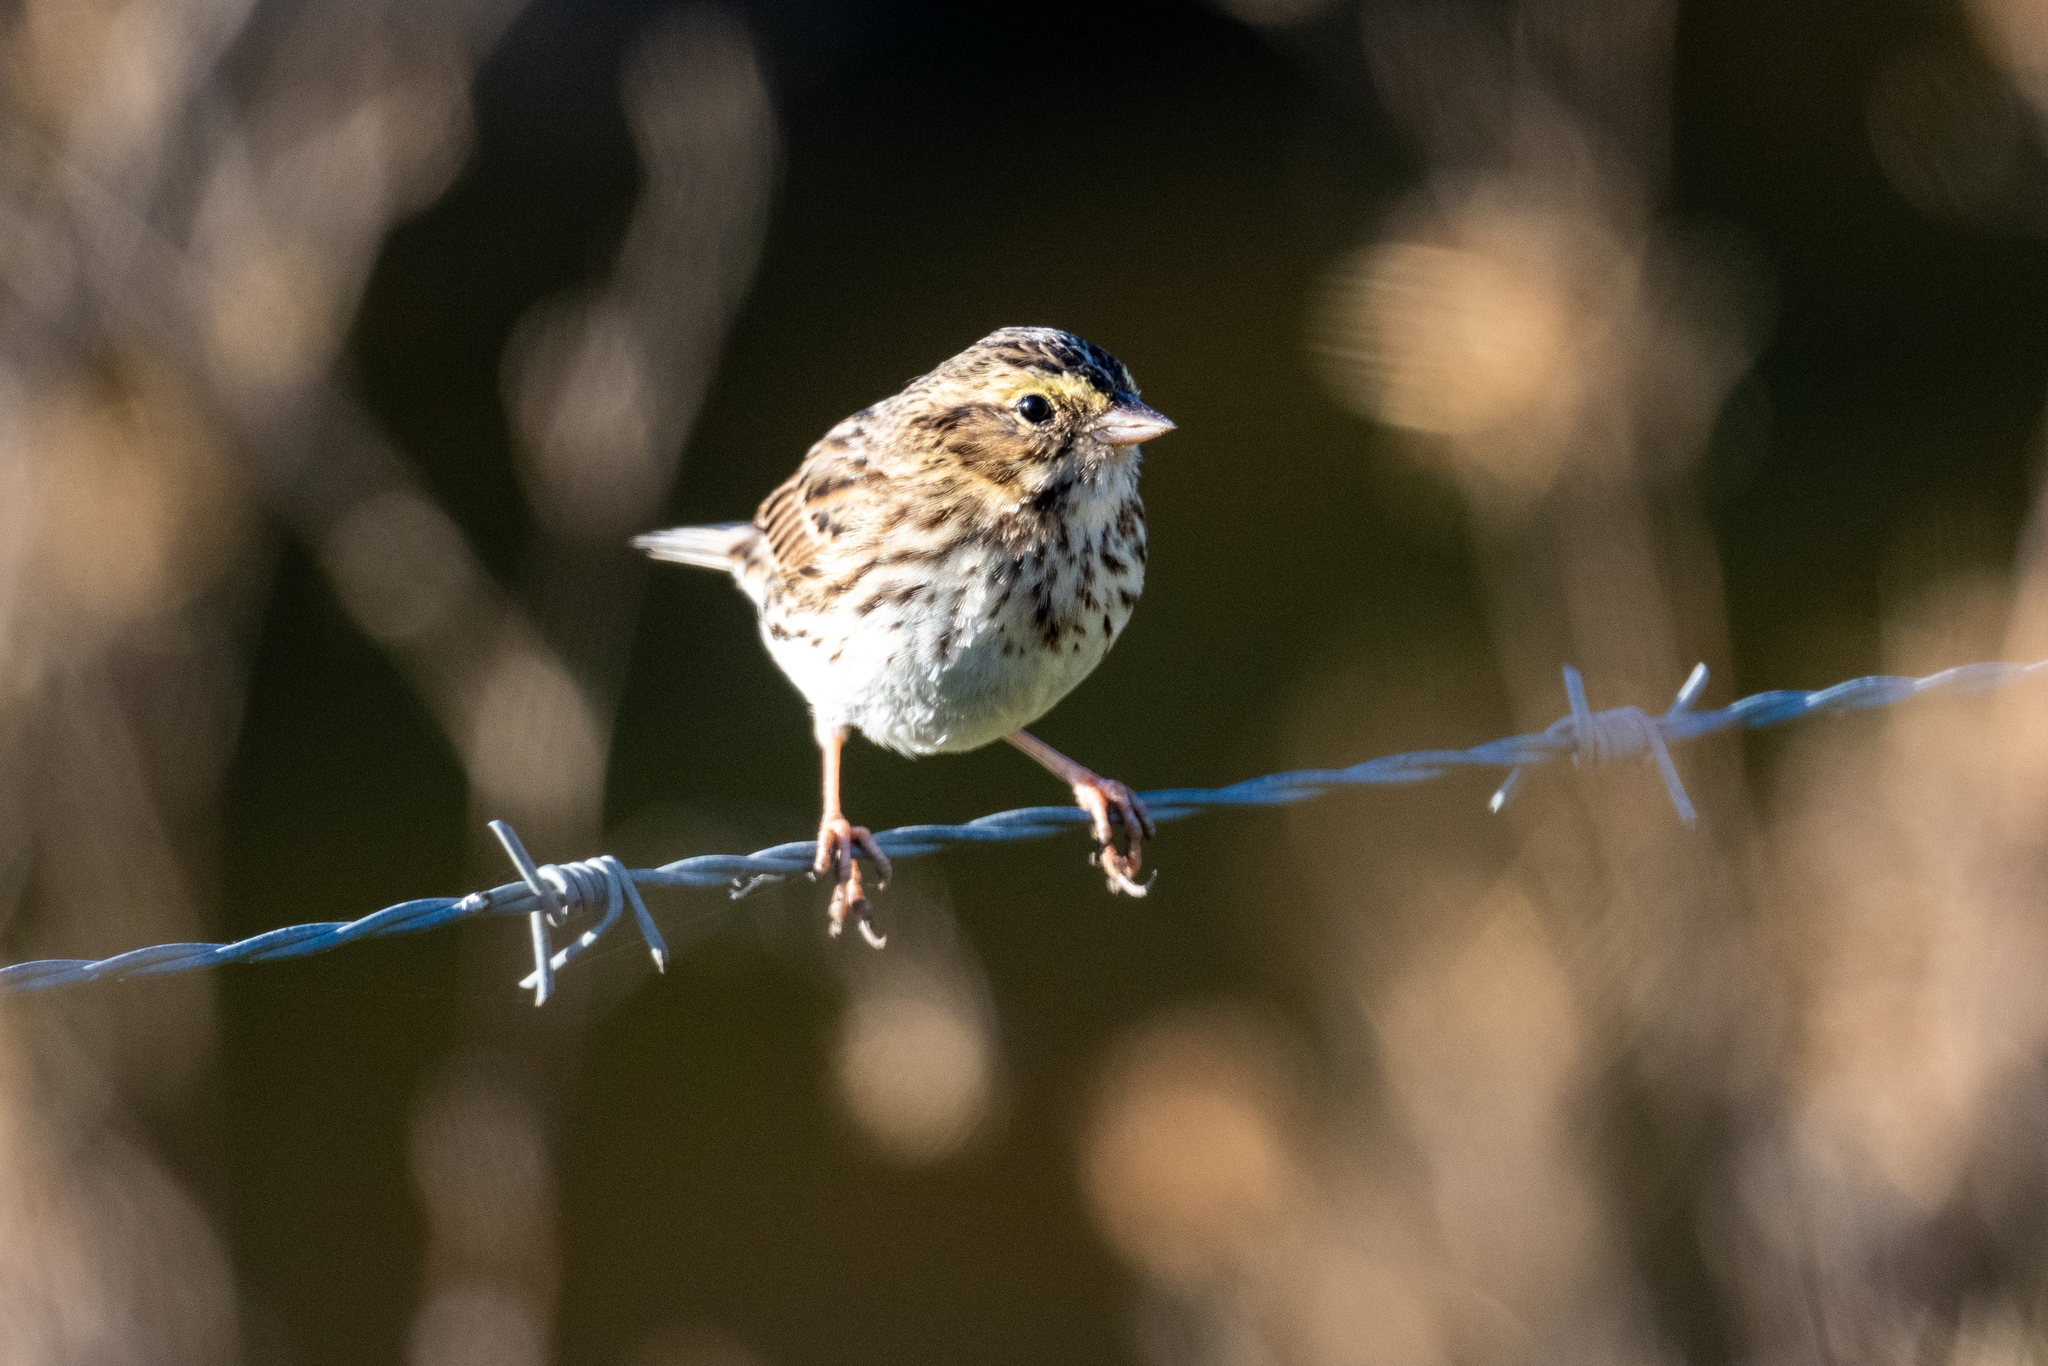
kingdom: Animalia
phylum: Chordata
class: Aves
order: Passeriformes
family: Passerellidae
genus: Passerculus
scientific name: Passerculus sandwichensis
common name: Savannah sparrow
